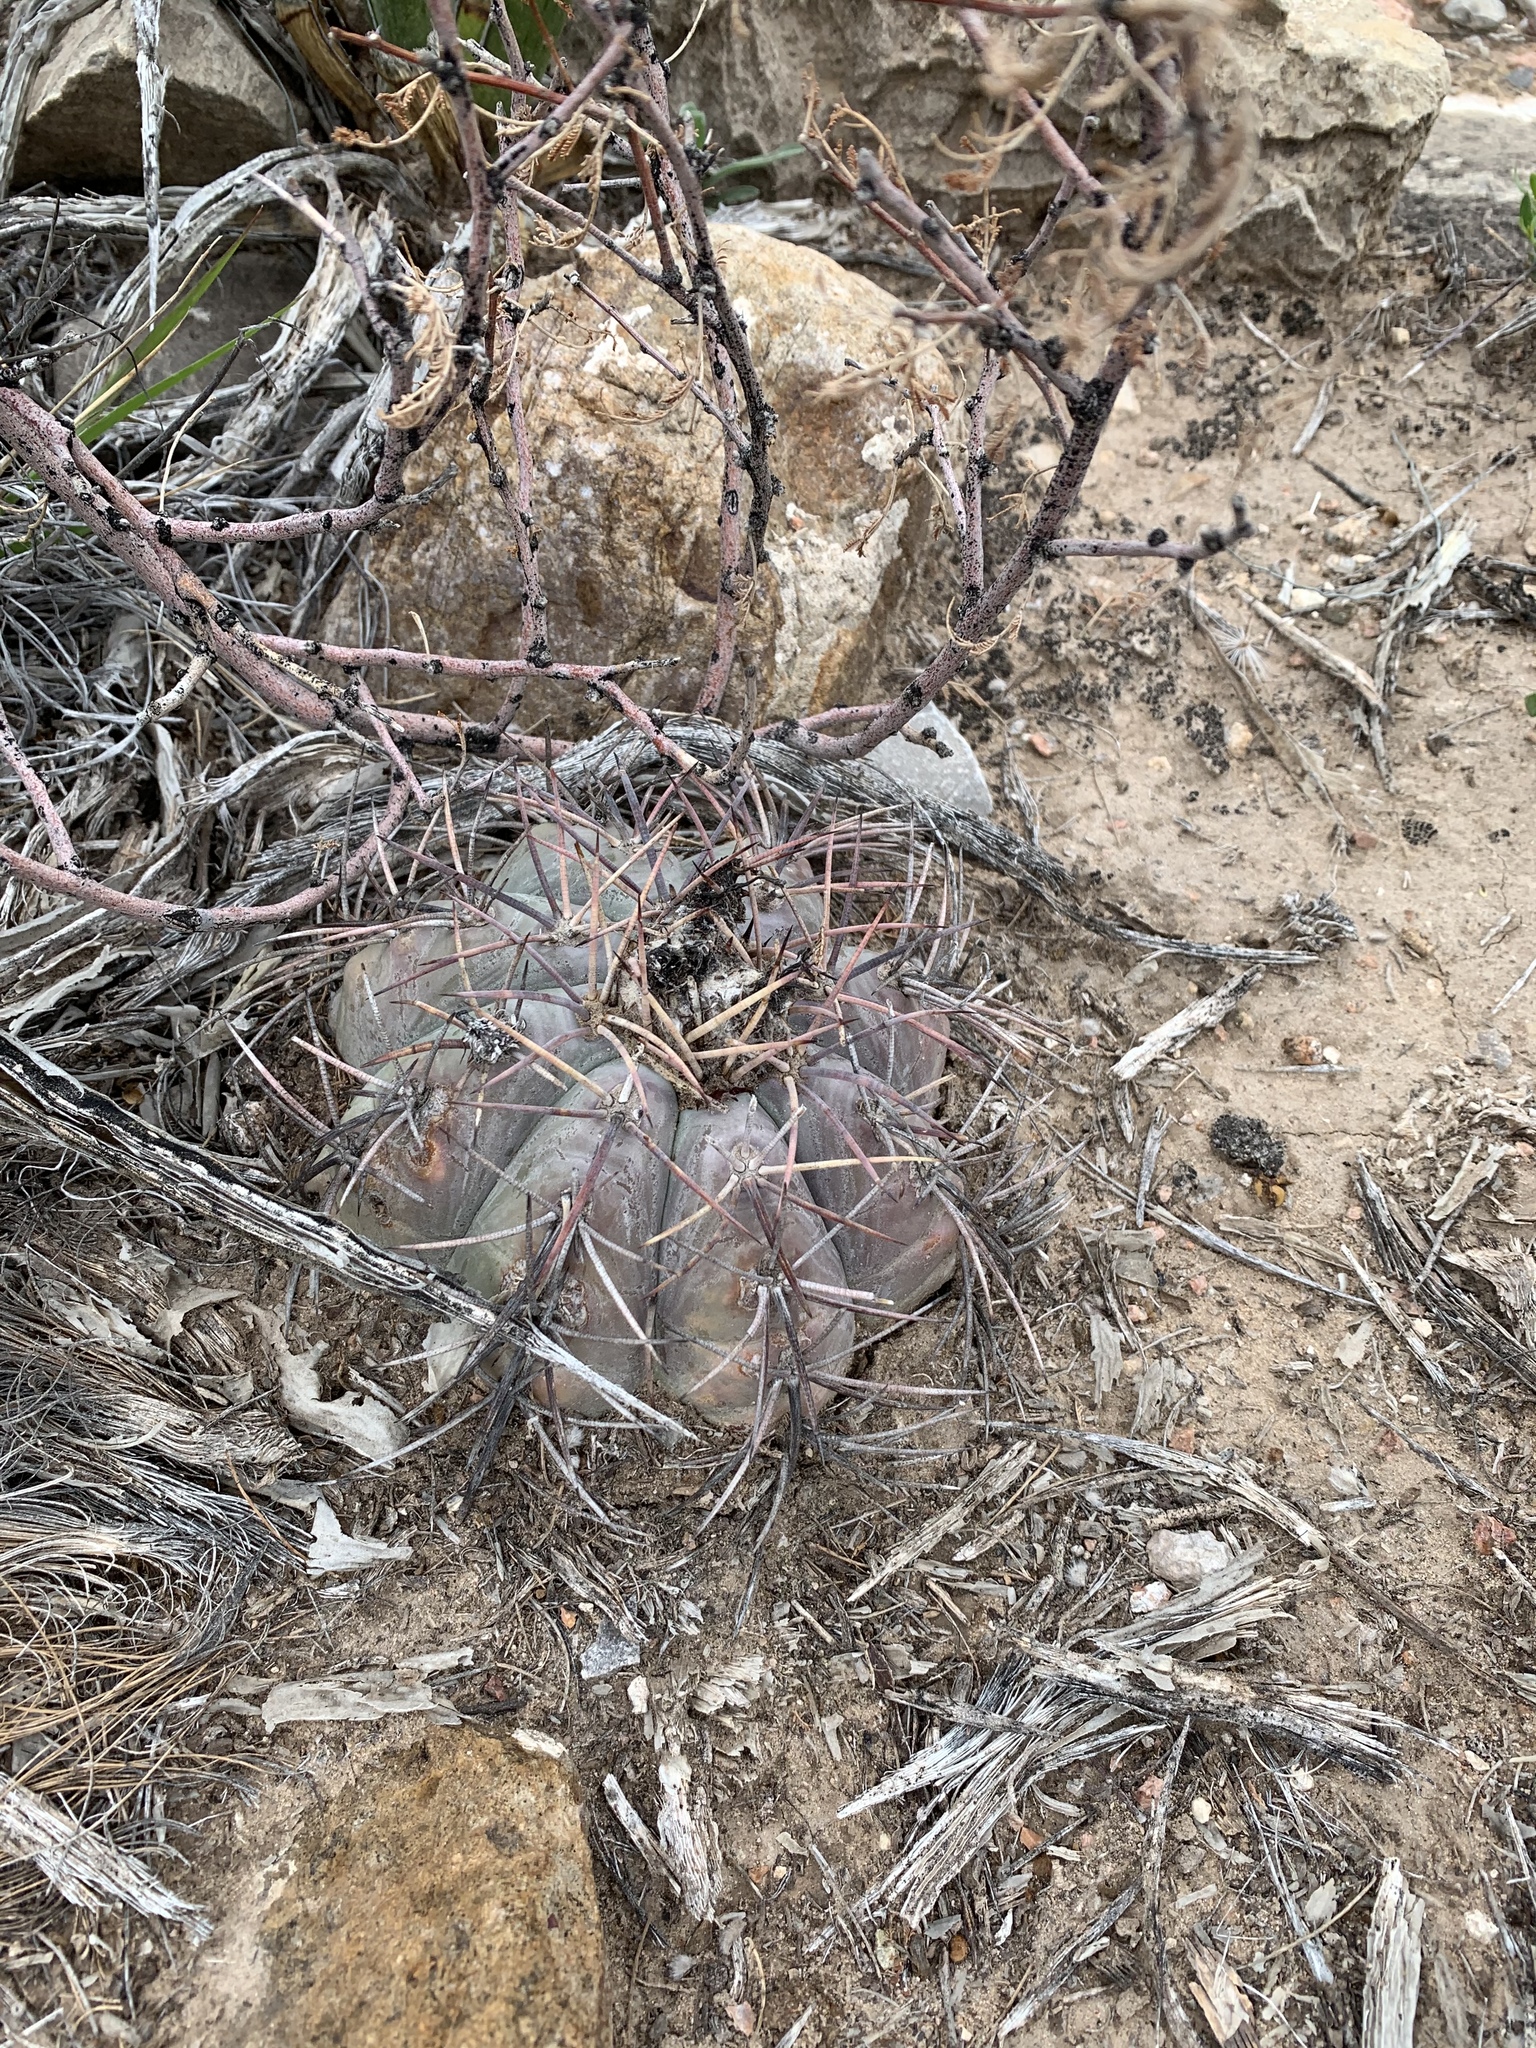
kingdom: Plantae
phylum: Tracheophyta
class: Magnoliopsida
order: Caryophyllales
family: Cactaceae
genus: Echinocactus
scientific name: Echinocactus horizonthalonius
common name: Devilshead
